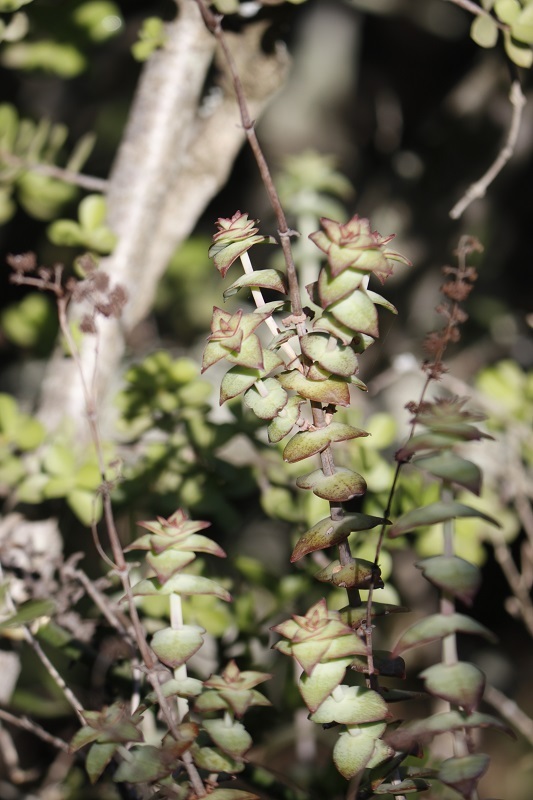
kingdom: Plantae
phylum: Tracheophyta
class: Magnoliopsida
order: Saxifragales
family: Crassulaceae
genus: Crassula
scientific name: Crassula perforata
